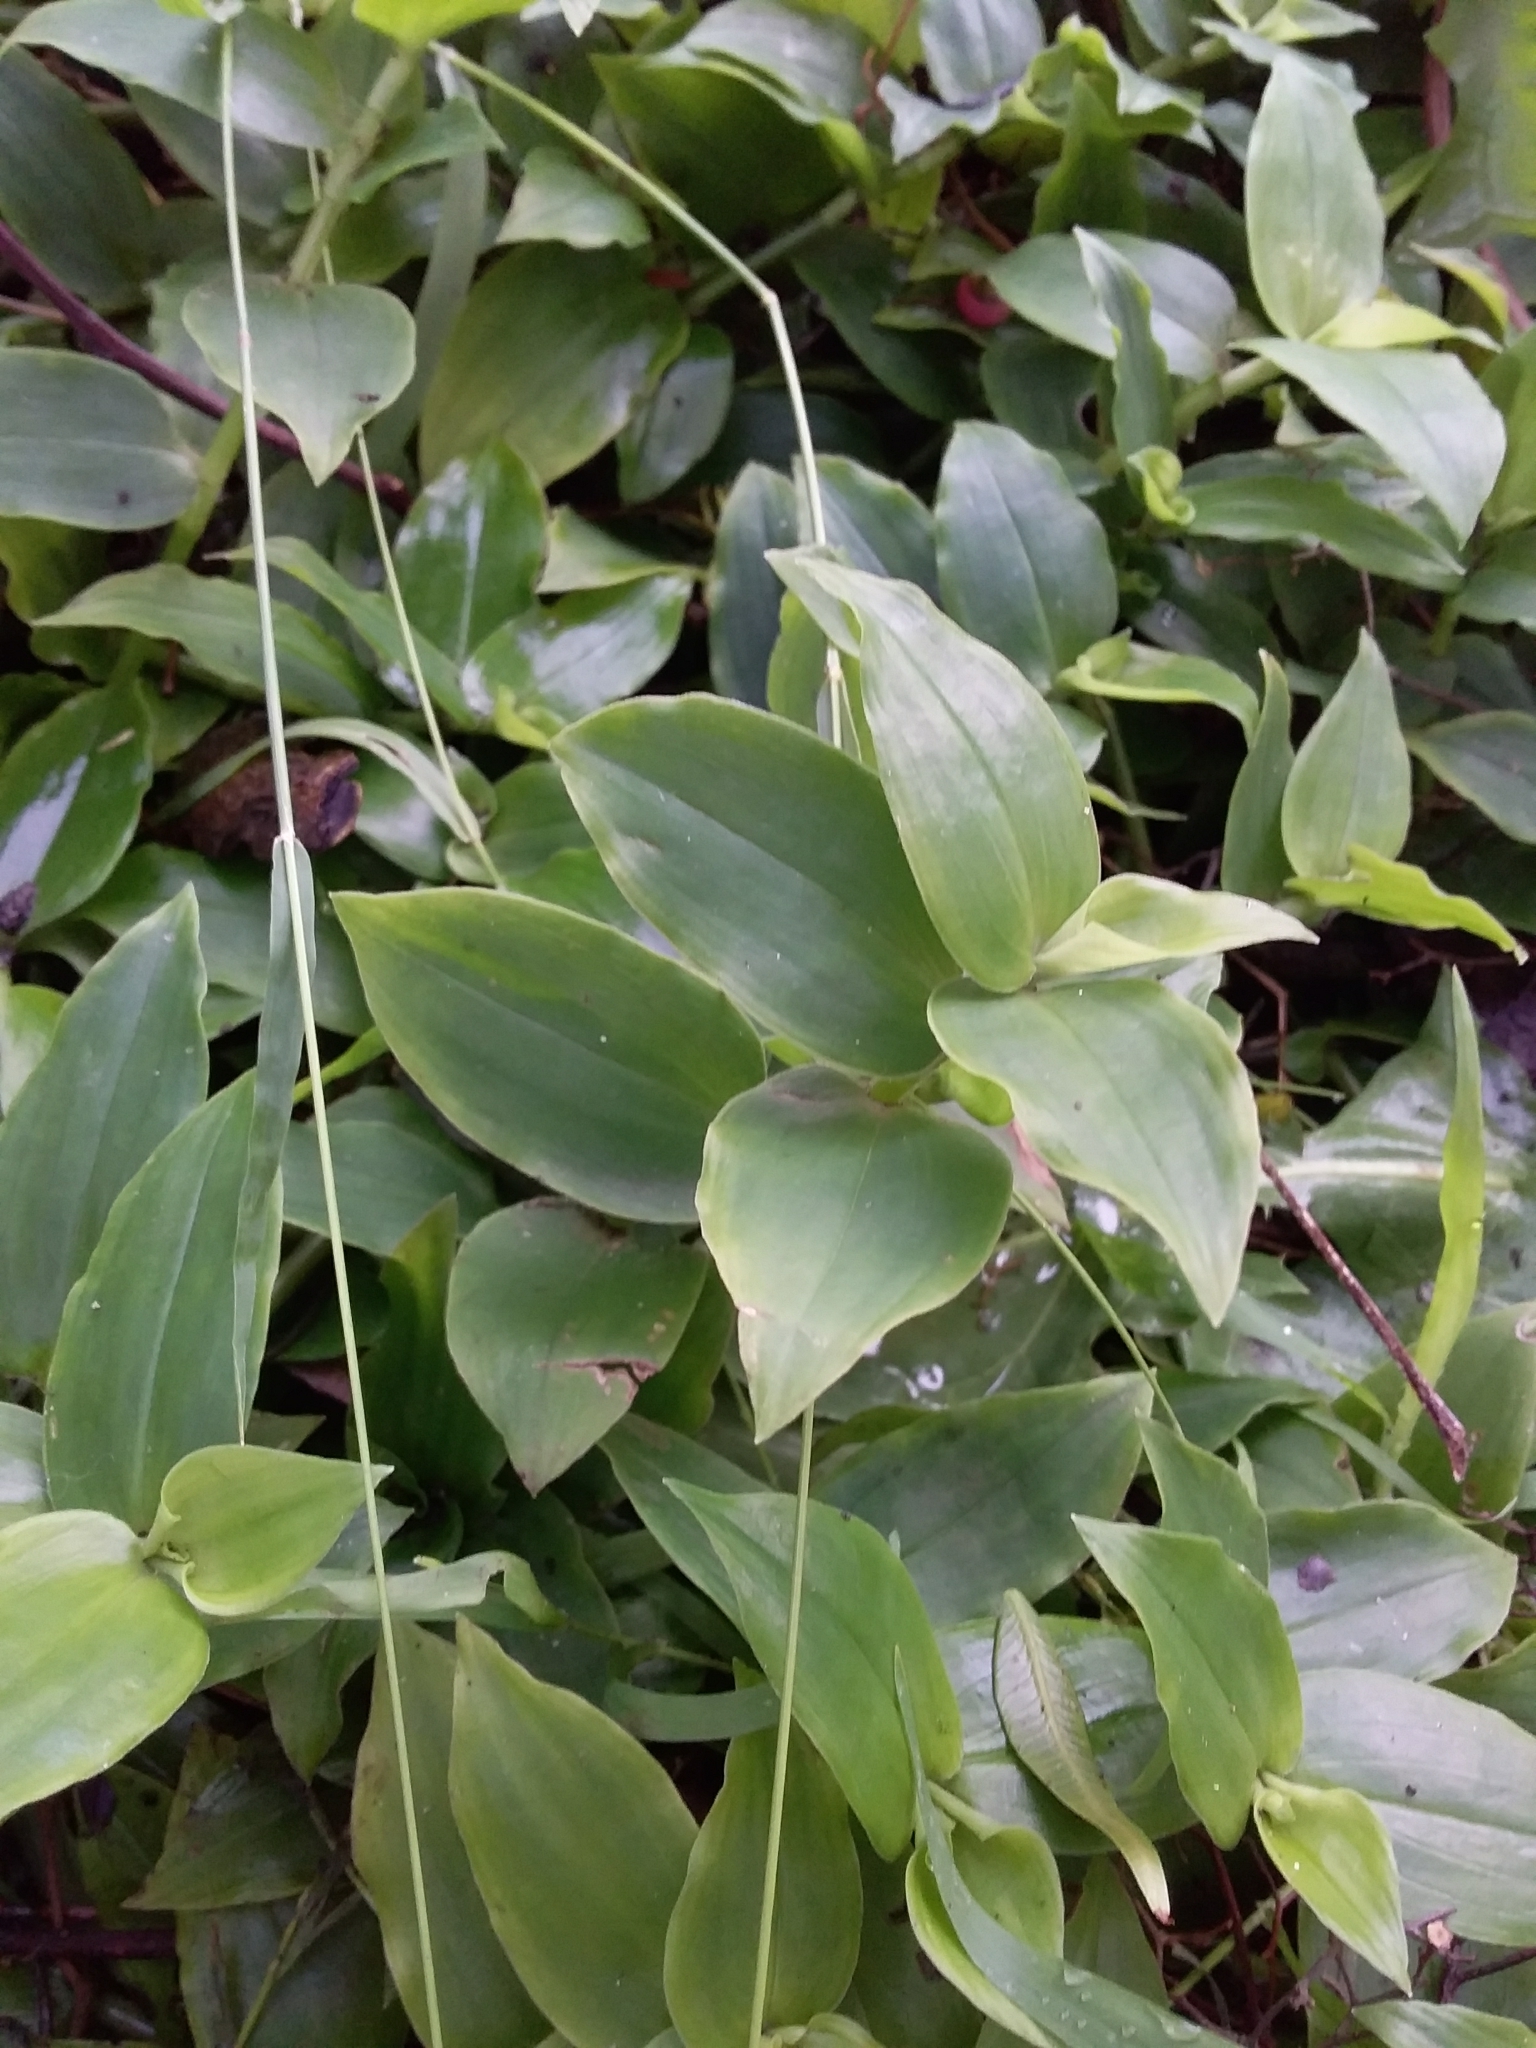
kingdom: Plantae
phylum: Tracheophyta
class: Liliopsida
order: Commelinales
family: Commelinaceae
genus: Tradescantia
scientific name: Tradescantia fluminensis
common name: Wandering-jew
